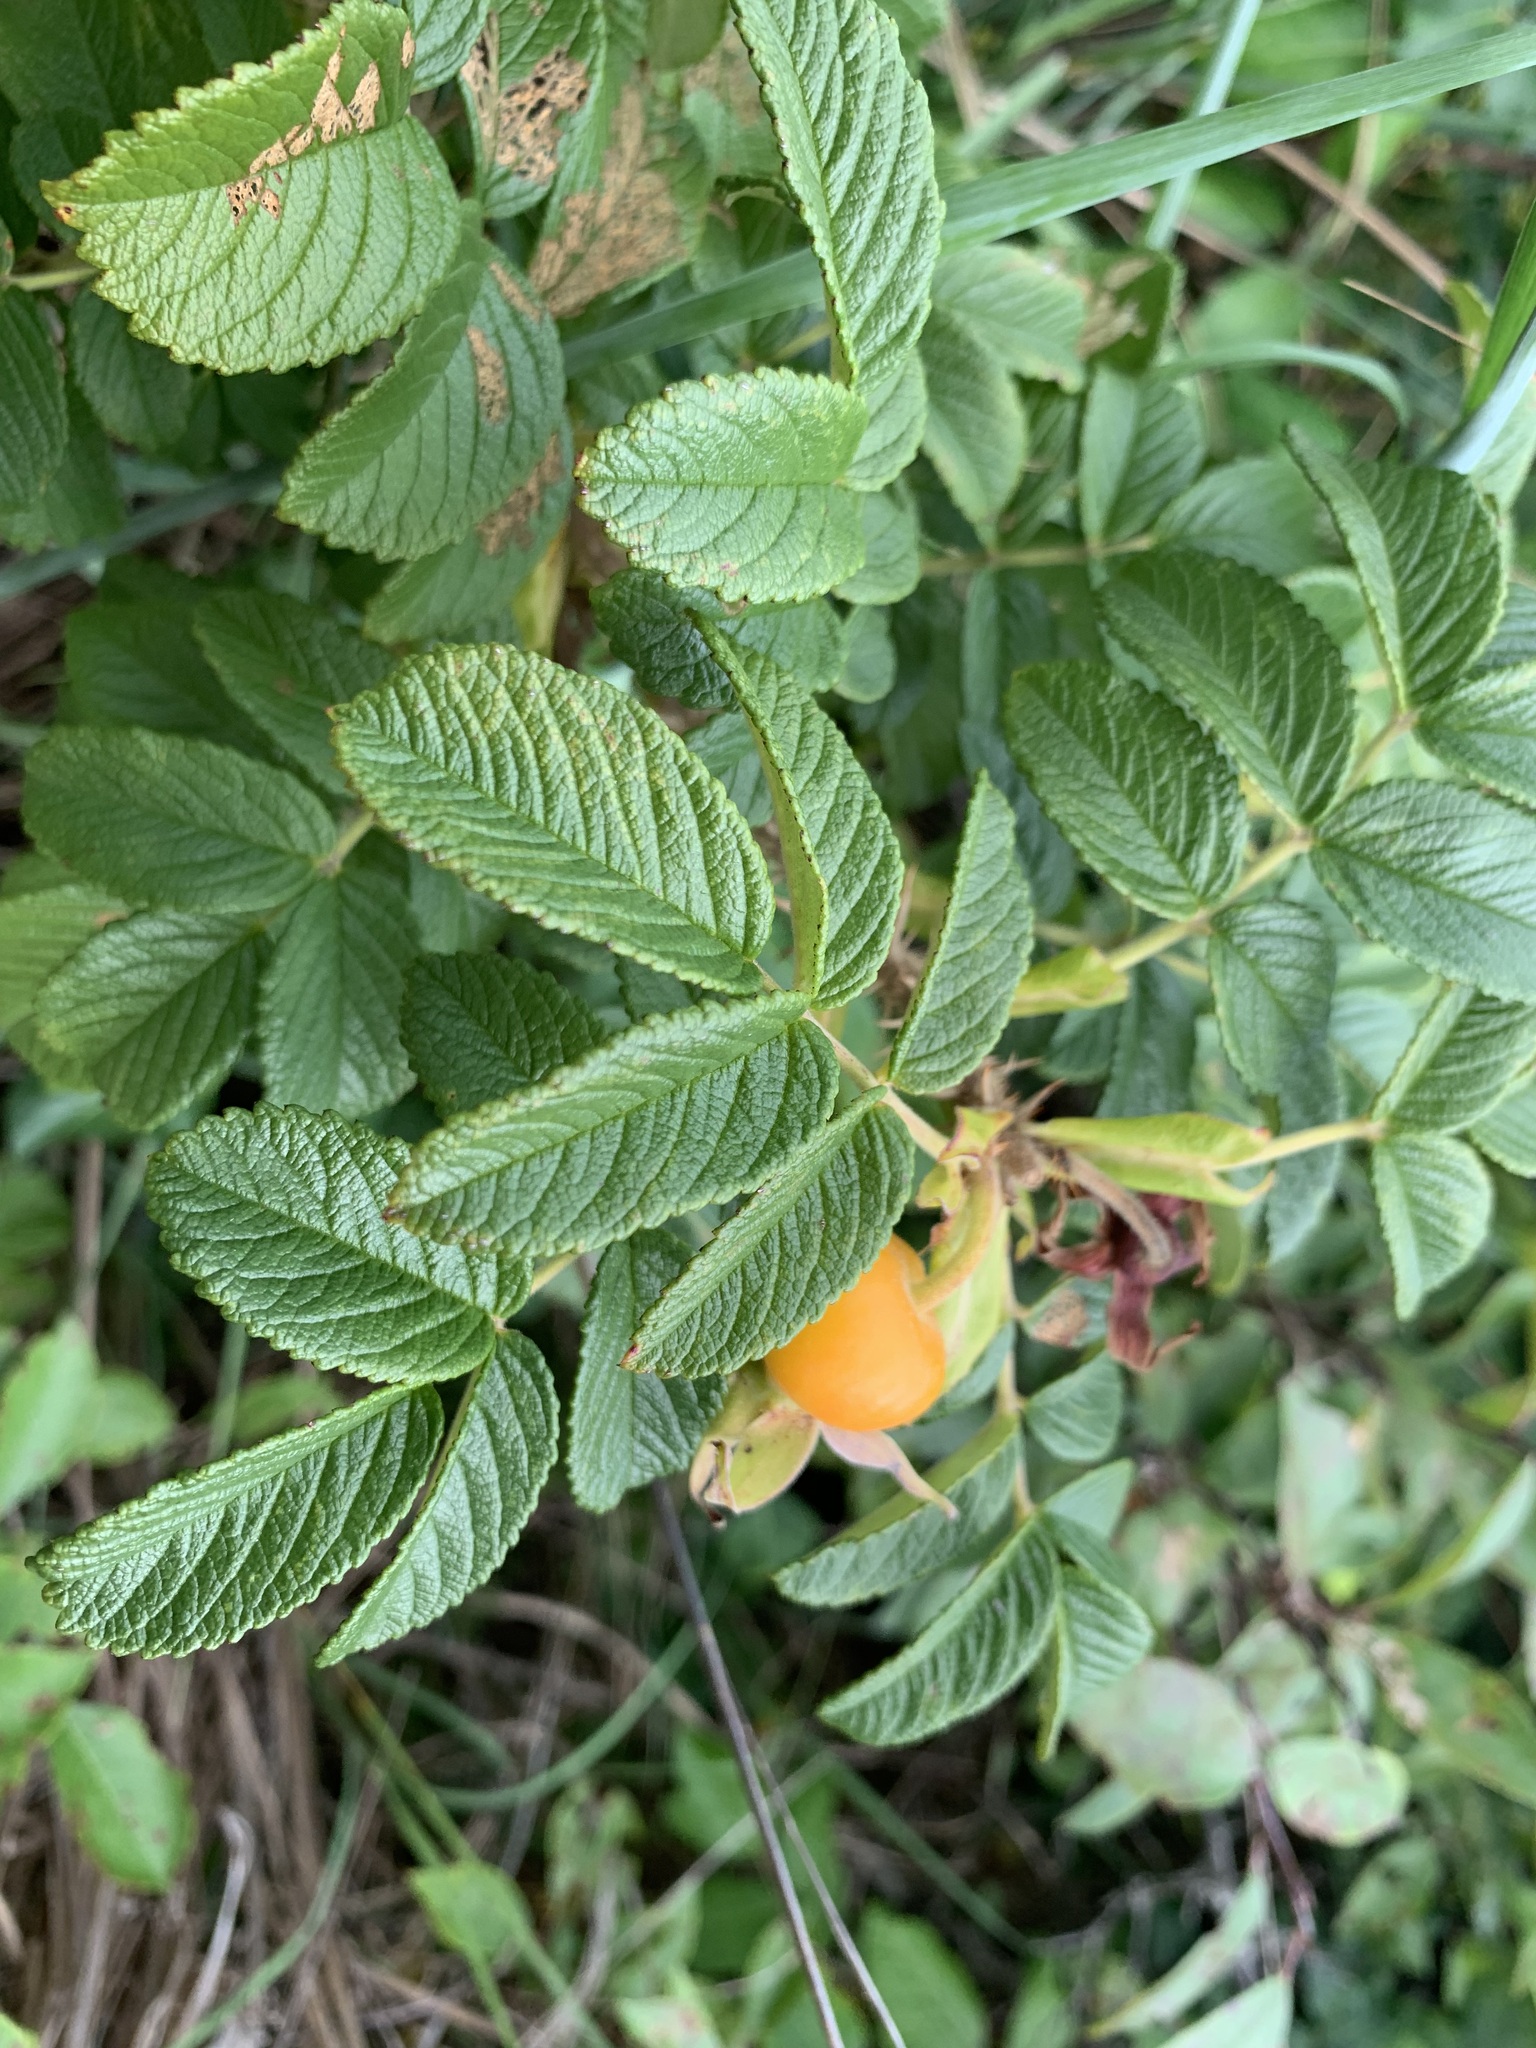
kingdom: Plantae
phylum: Tracheophyta
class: Magnoliopsida
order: Rosales
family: Rosaceae
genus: Rosa
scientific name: Rosa rugosa
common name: Japanese rose
